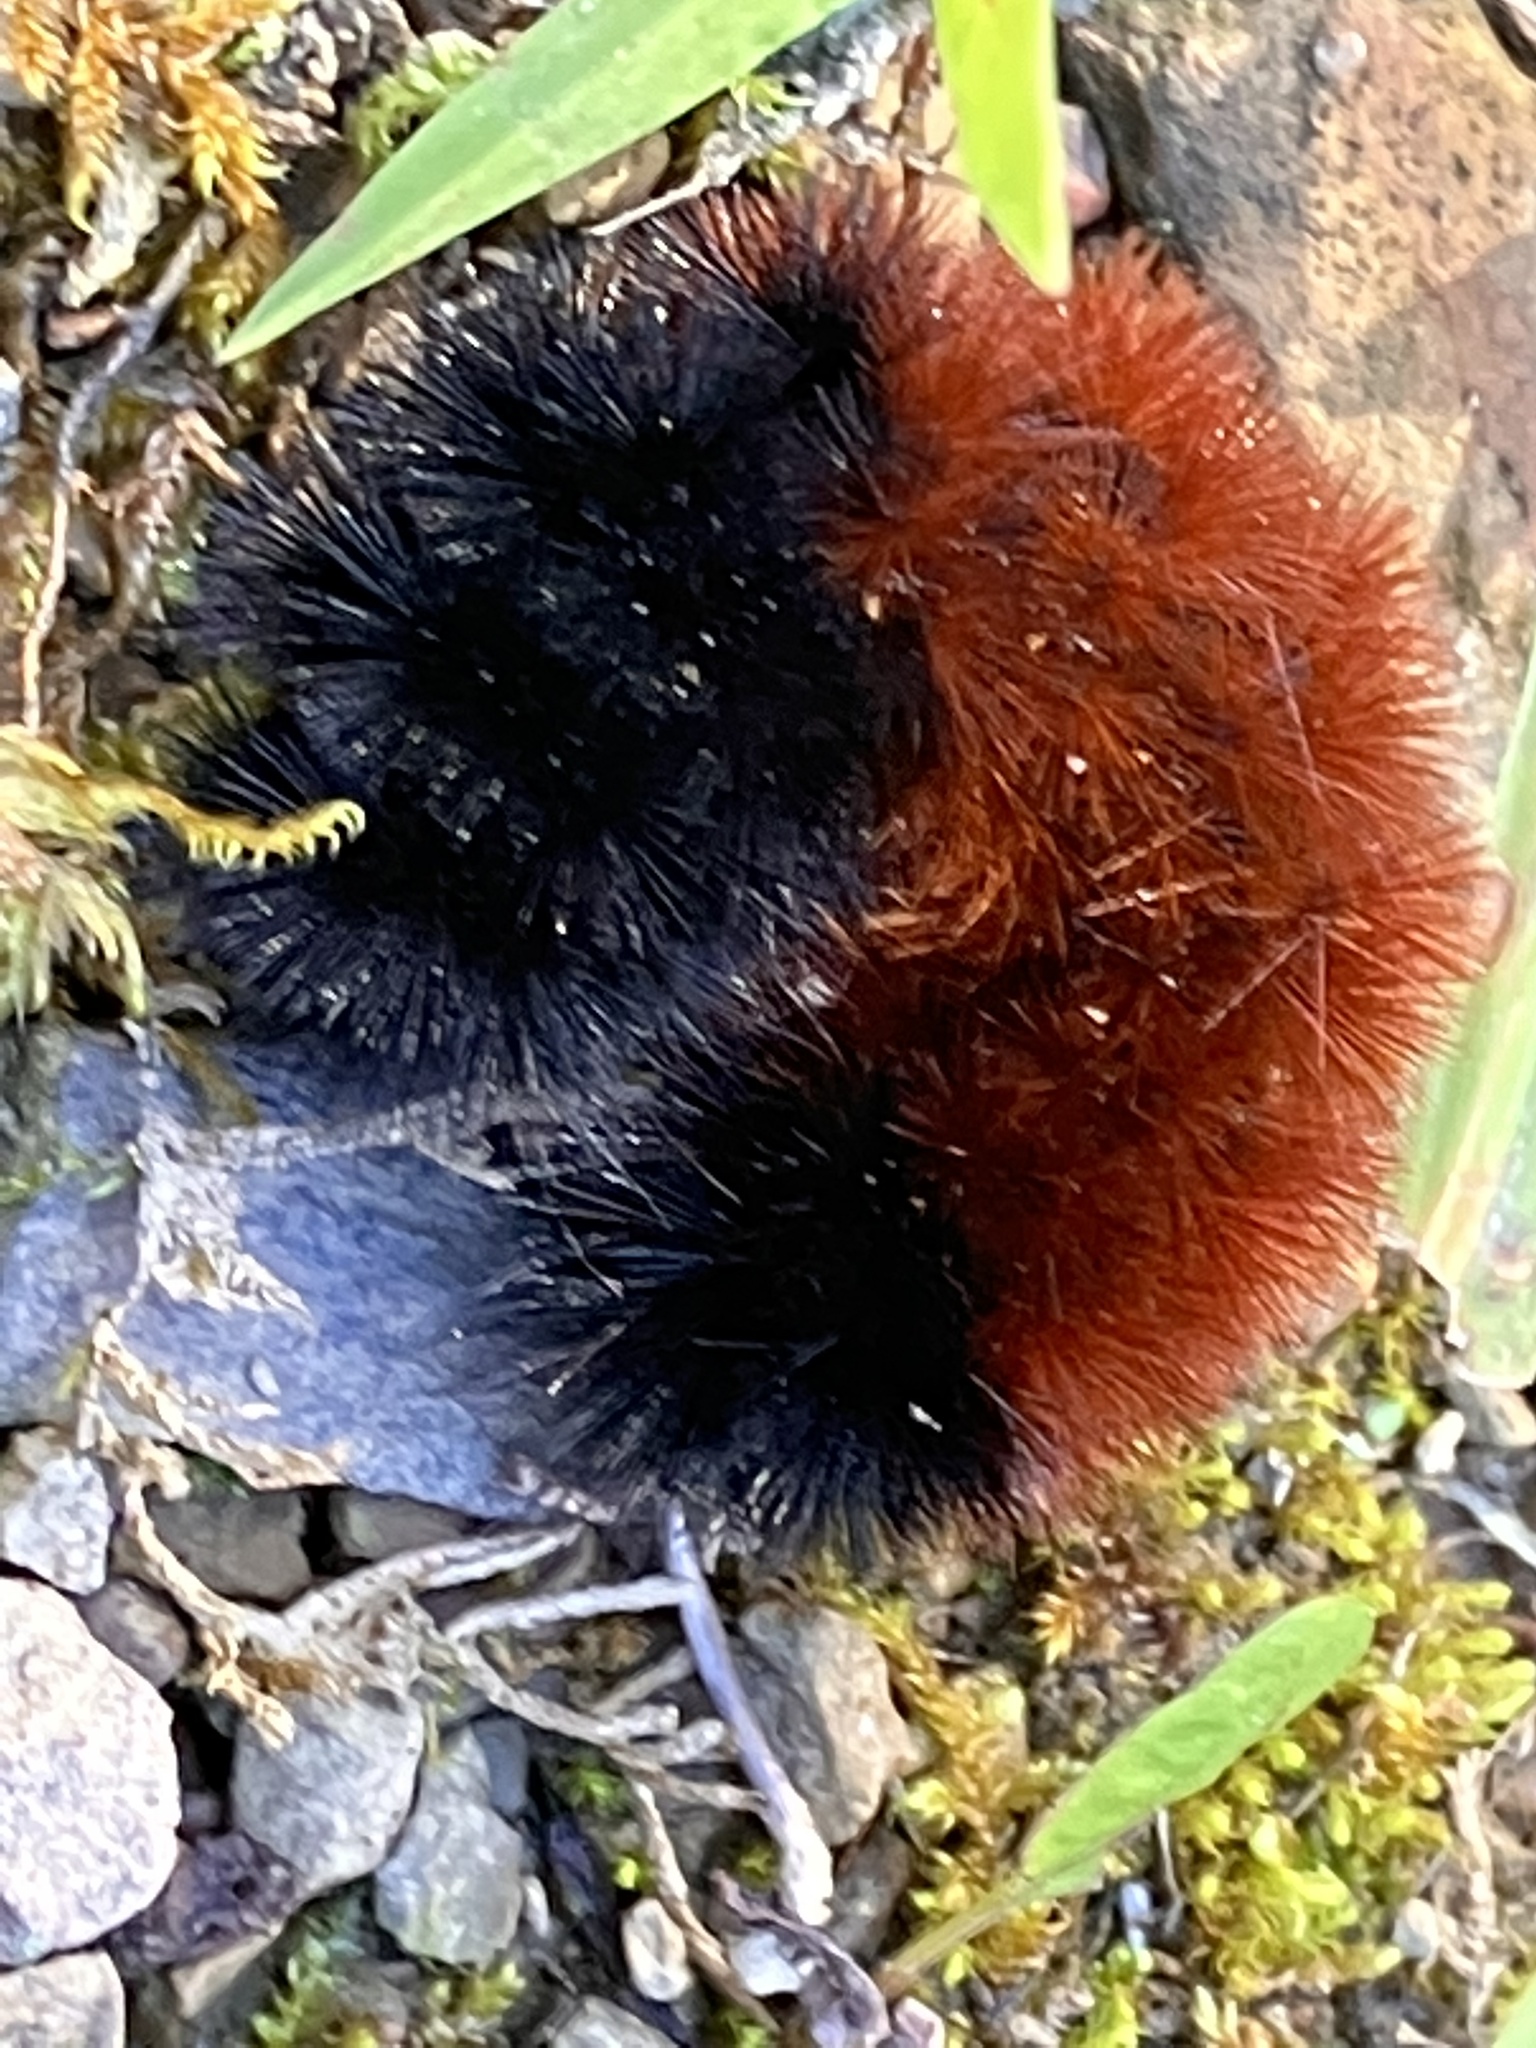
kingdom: Animalia
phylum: Arthropoda
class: Insecta
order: Lepidoptera
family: Erebidae
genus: Pyrrharctia
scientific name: Pyrrharctia isabella
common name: Isabella tiger moth
